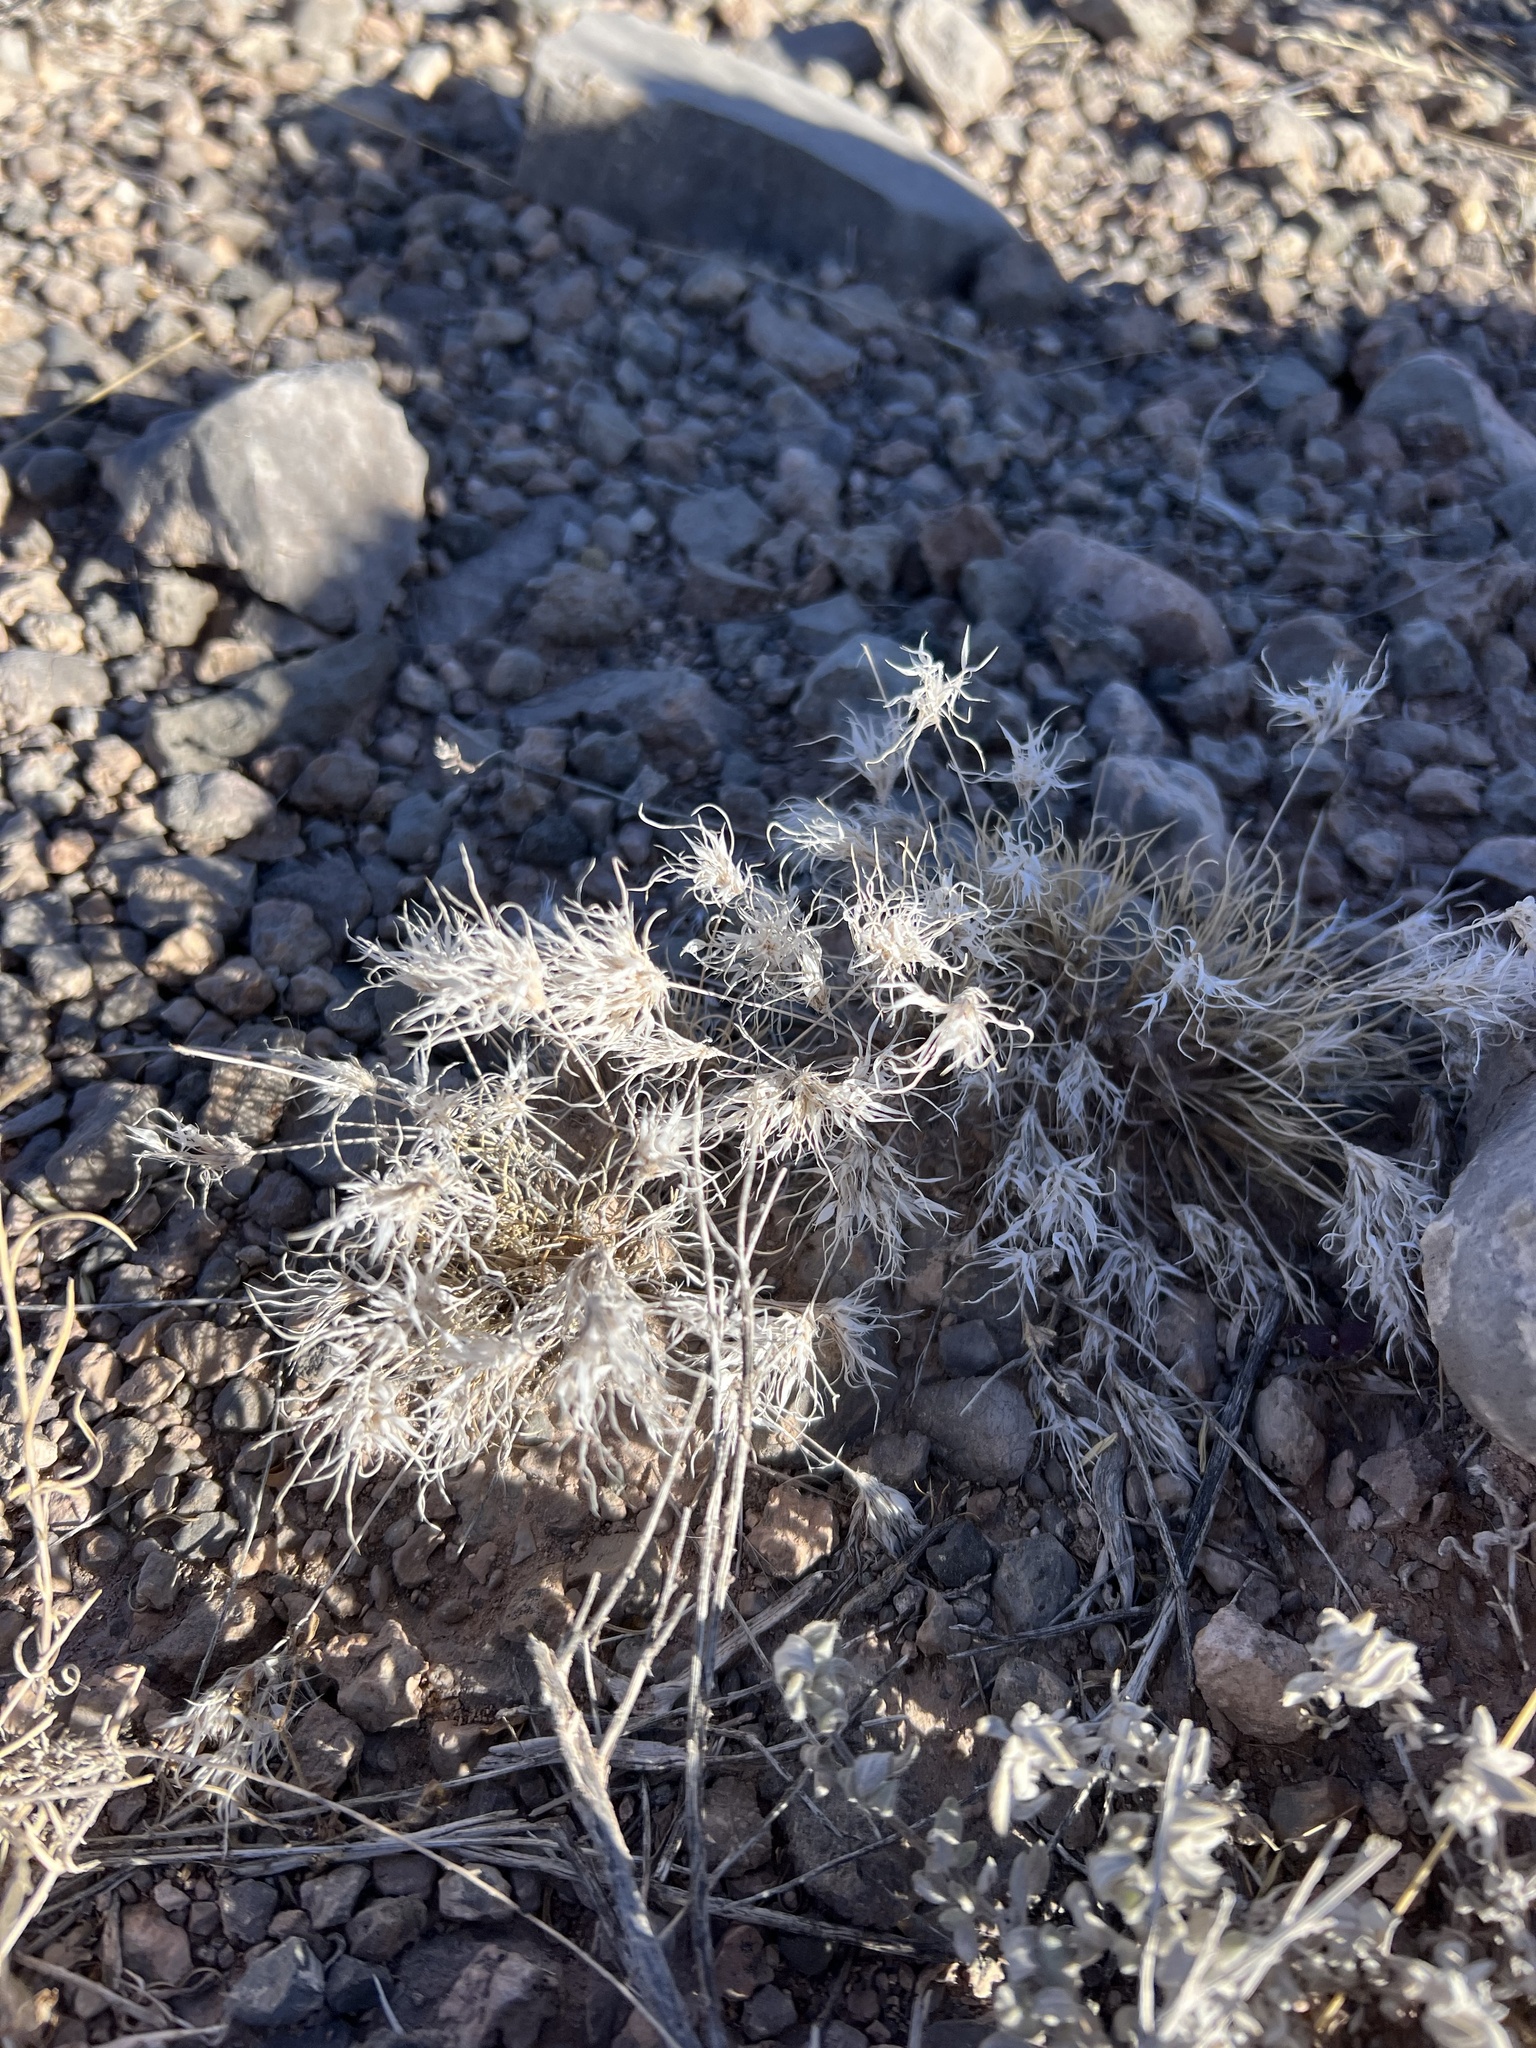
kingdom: Plantae
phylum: Tracheophyta
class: Liliopsida
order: Poales
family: Poaceae
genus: Dasyochloa
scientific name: Dasyochloa pulchella
